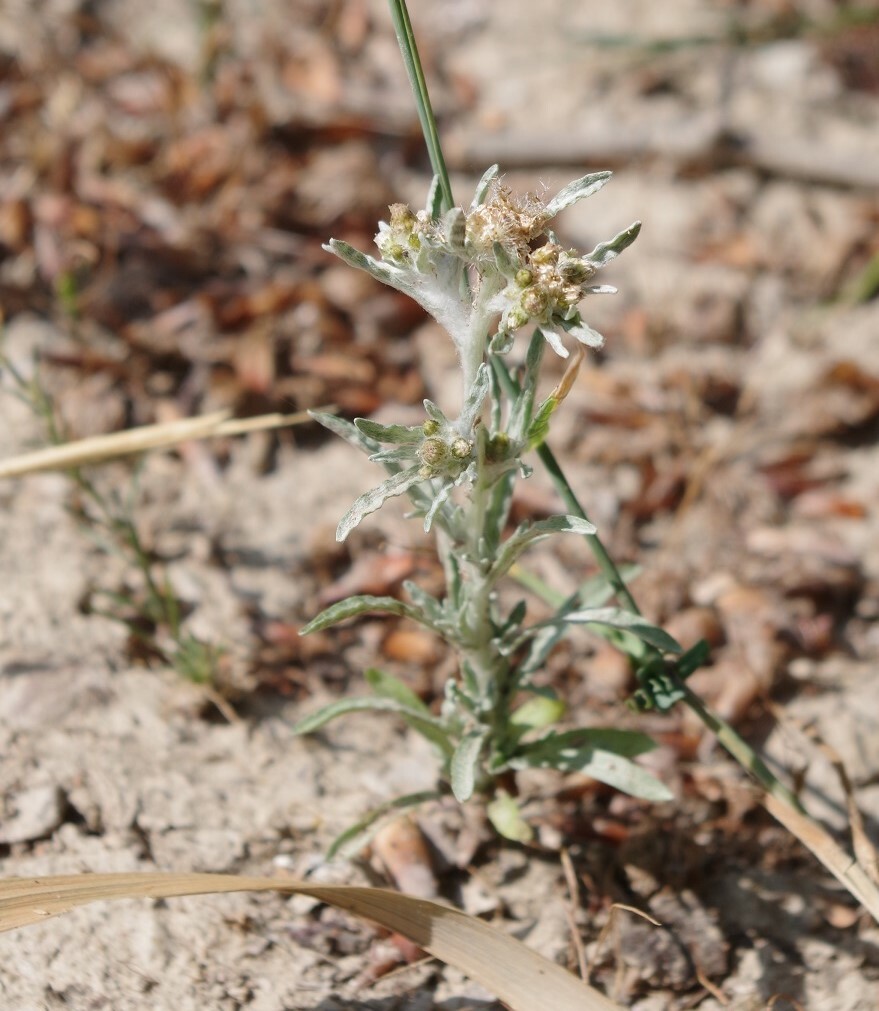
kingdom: Plantae
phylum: Tracheophyta
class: Magnoliopsida
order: Asterales
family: Asteraceae
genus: Gnaphalium
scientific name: Gnaphalium uliginosum
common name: Marsh cudweed
